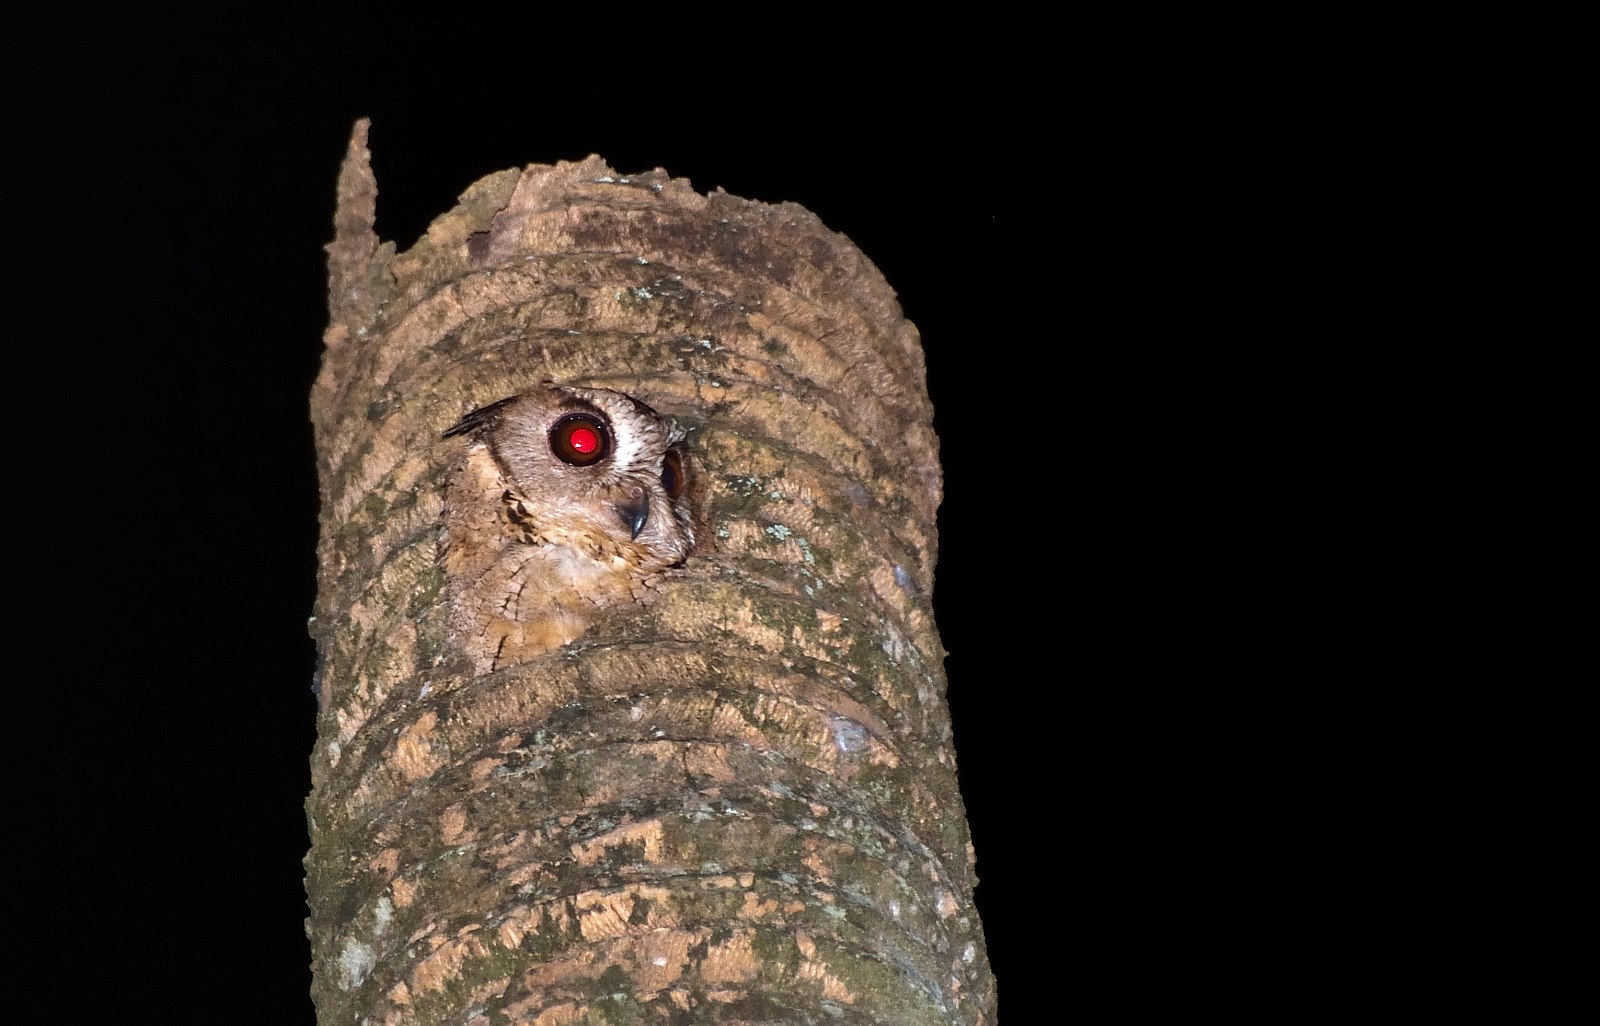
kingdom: Animalia
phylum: Chordata
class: Aves
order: Strigiformes
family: Strigidae
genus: Otus
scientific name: Otus bakkamoena
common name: Indian scops owl
